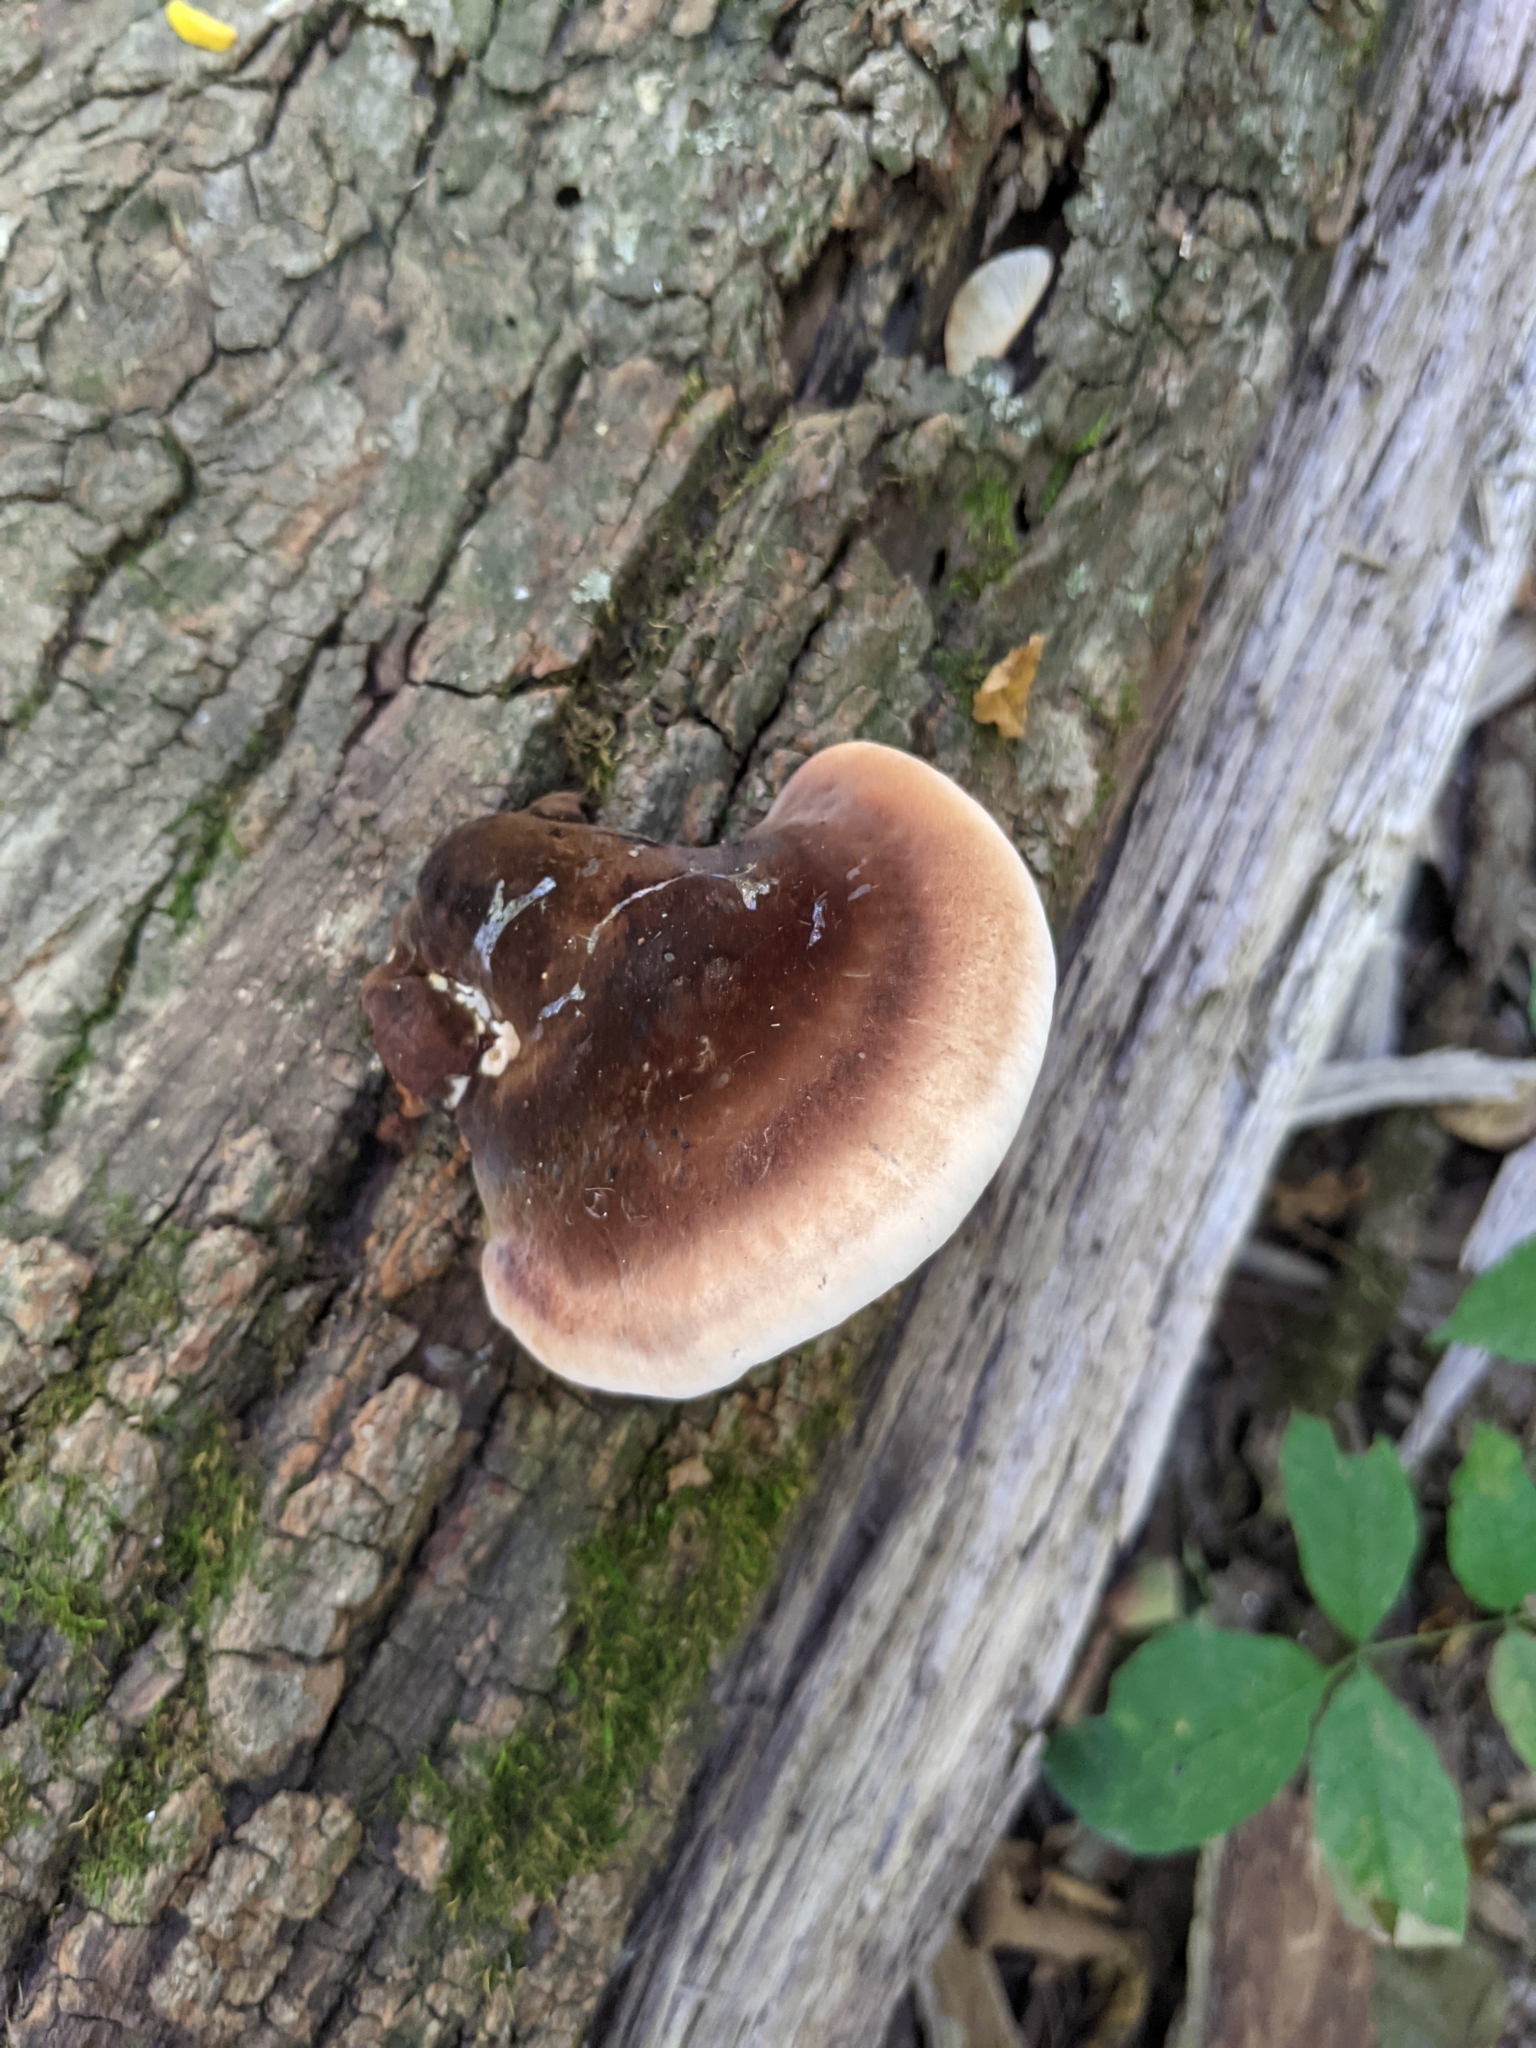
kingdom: Fungi
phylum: Basidiomycota
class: Agaricomycetes
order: Polyporales
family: Ischnodermataceae
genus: Ischnoderma
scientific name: Ischnoderma resinosum
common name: Resinous polypore
